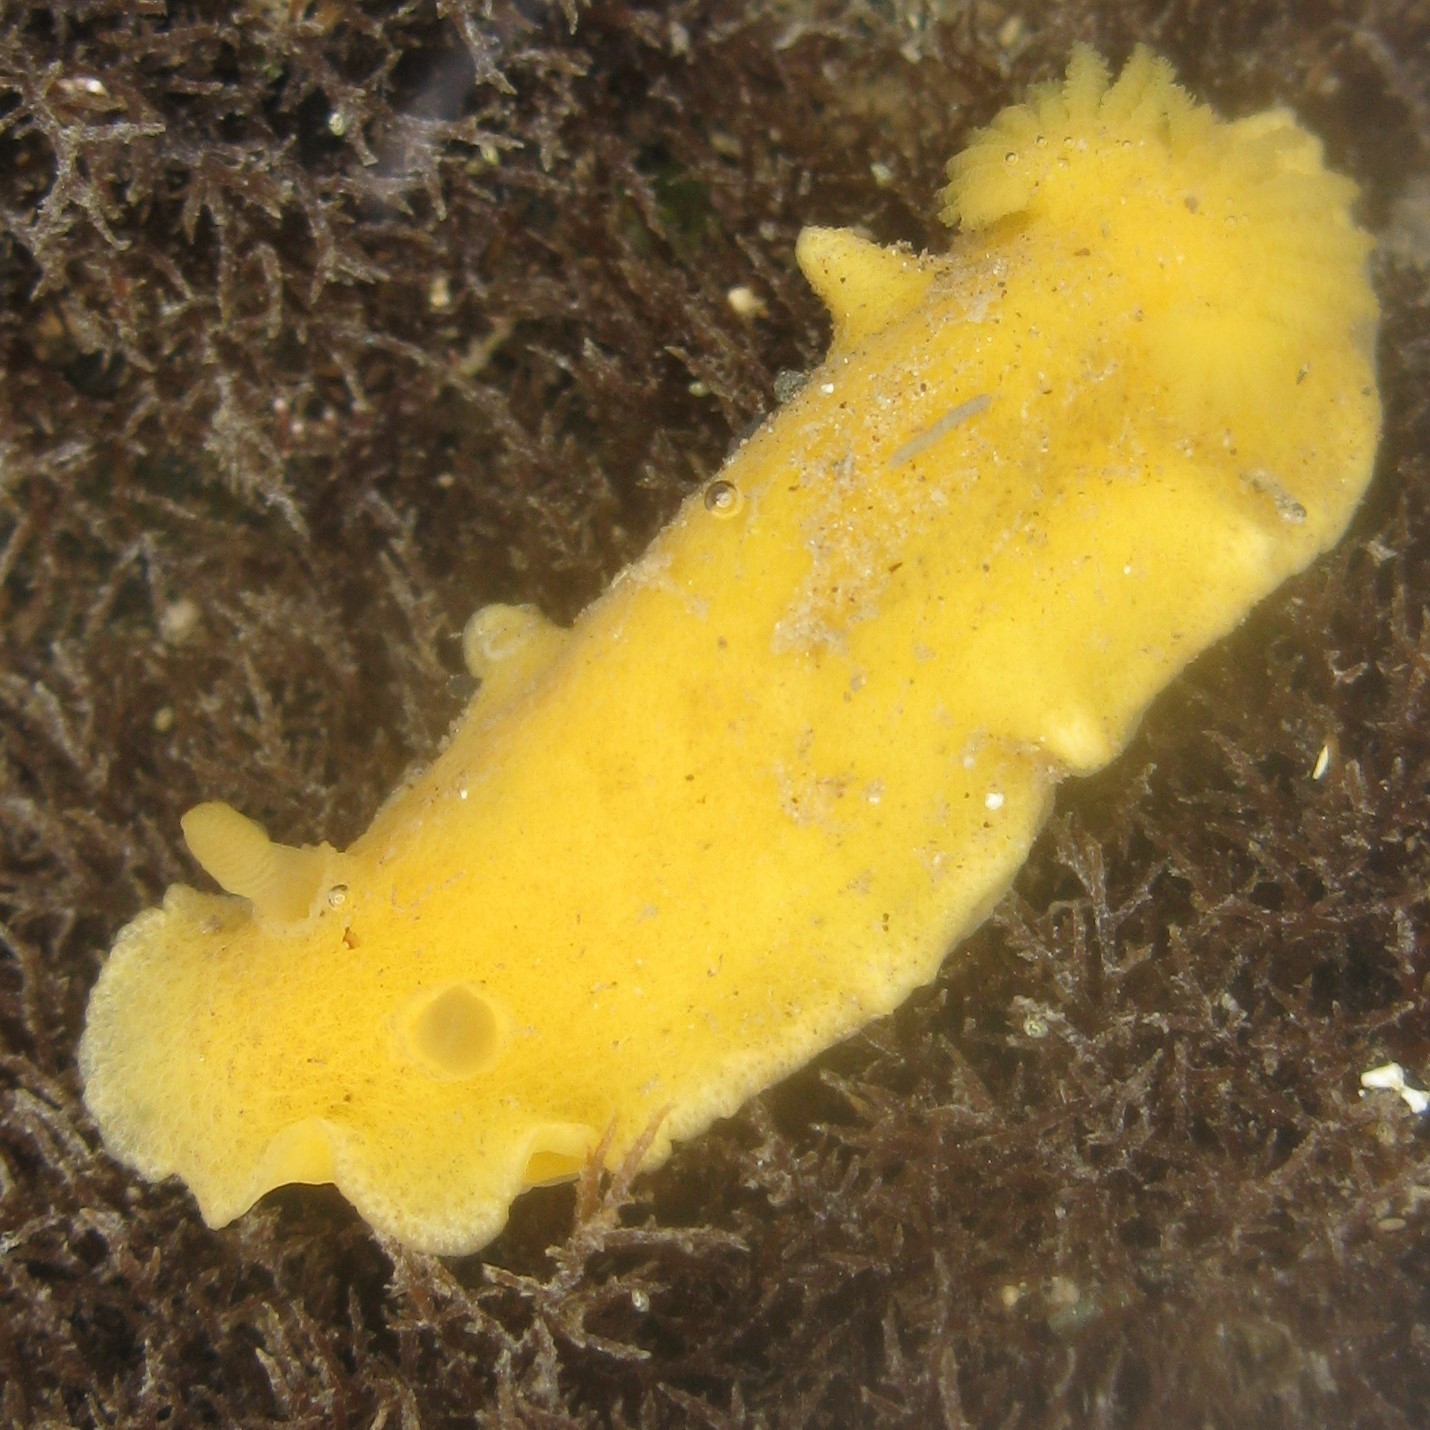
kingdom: Animalia
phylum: Mollusca
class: Gastropoda
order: Nudibranchia
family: Dorididae
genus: Doriopsis
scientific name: Doriopsis granulosa
